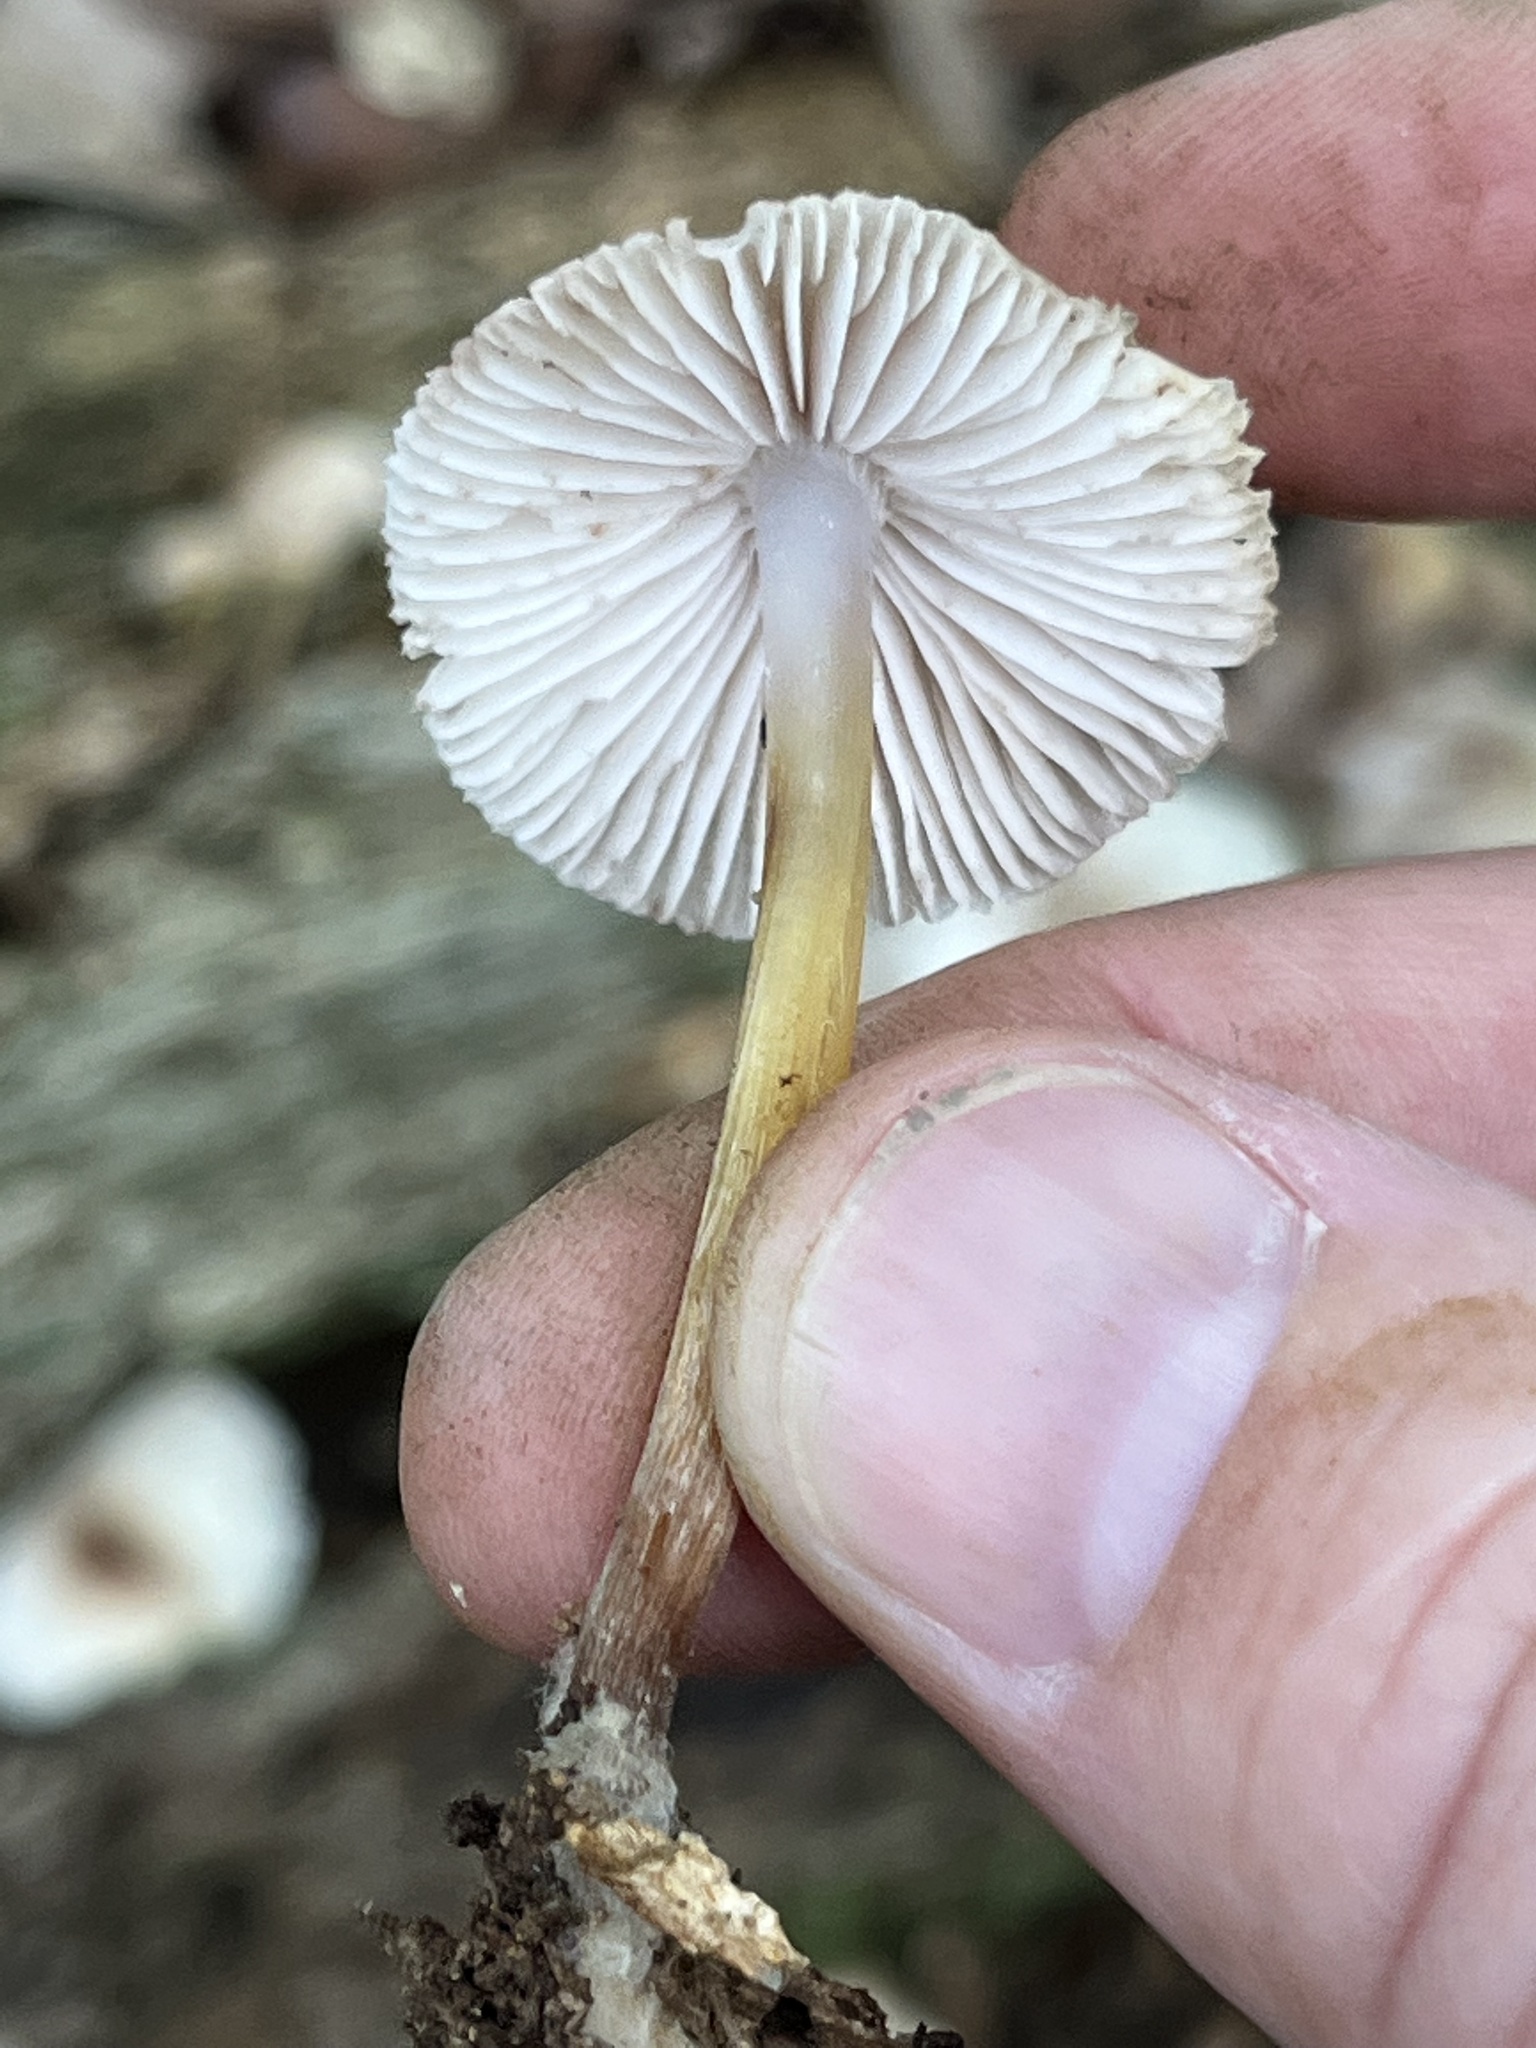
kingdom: Fungi
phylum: Basidiomycota
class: Agaricomycetes
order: Agaricales
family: Mycenaceae
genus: Mycena
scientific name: Mycena inclinata
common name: Clustered bonnet
